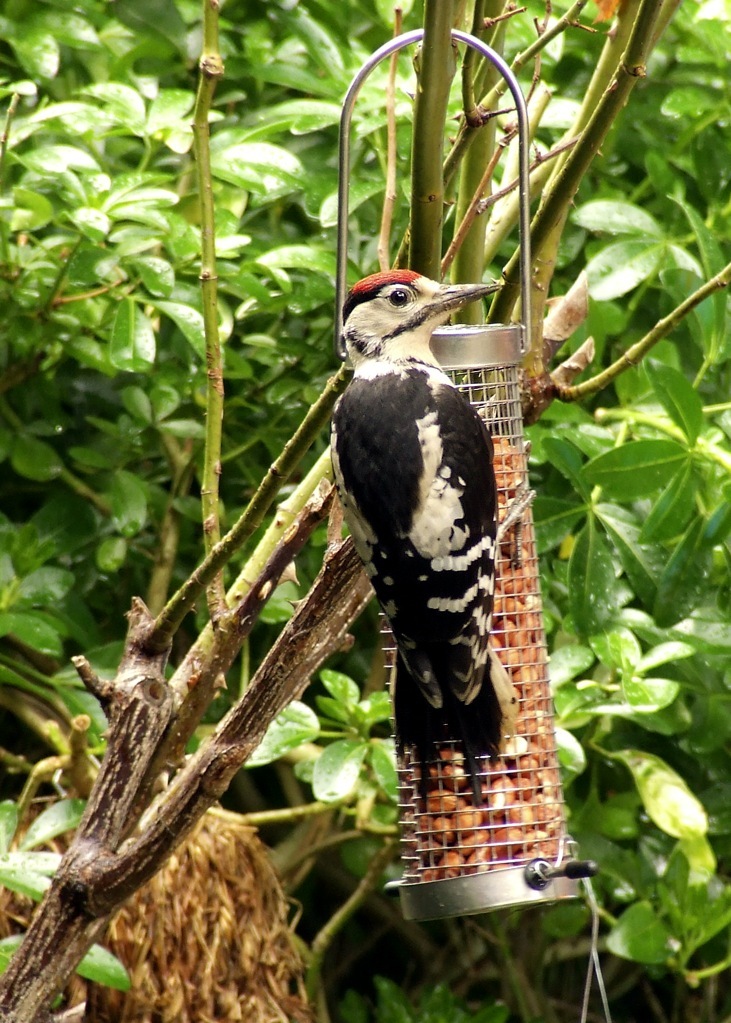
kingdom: Animalia
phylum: Chordata
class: Aves
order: Piciformes
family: Picidae
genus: Dendrocopos
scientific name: Dendrocopos major
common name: Great spotted woodpecker
